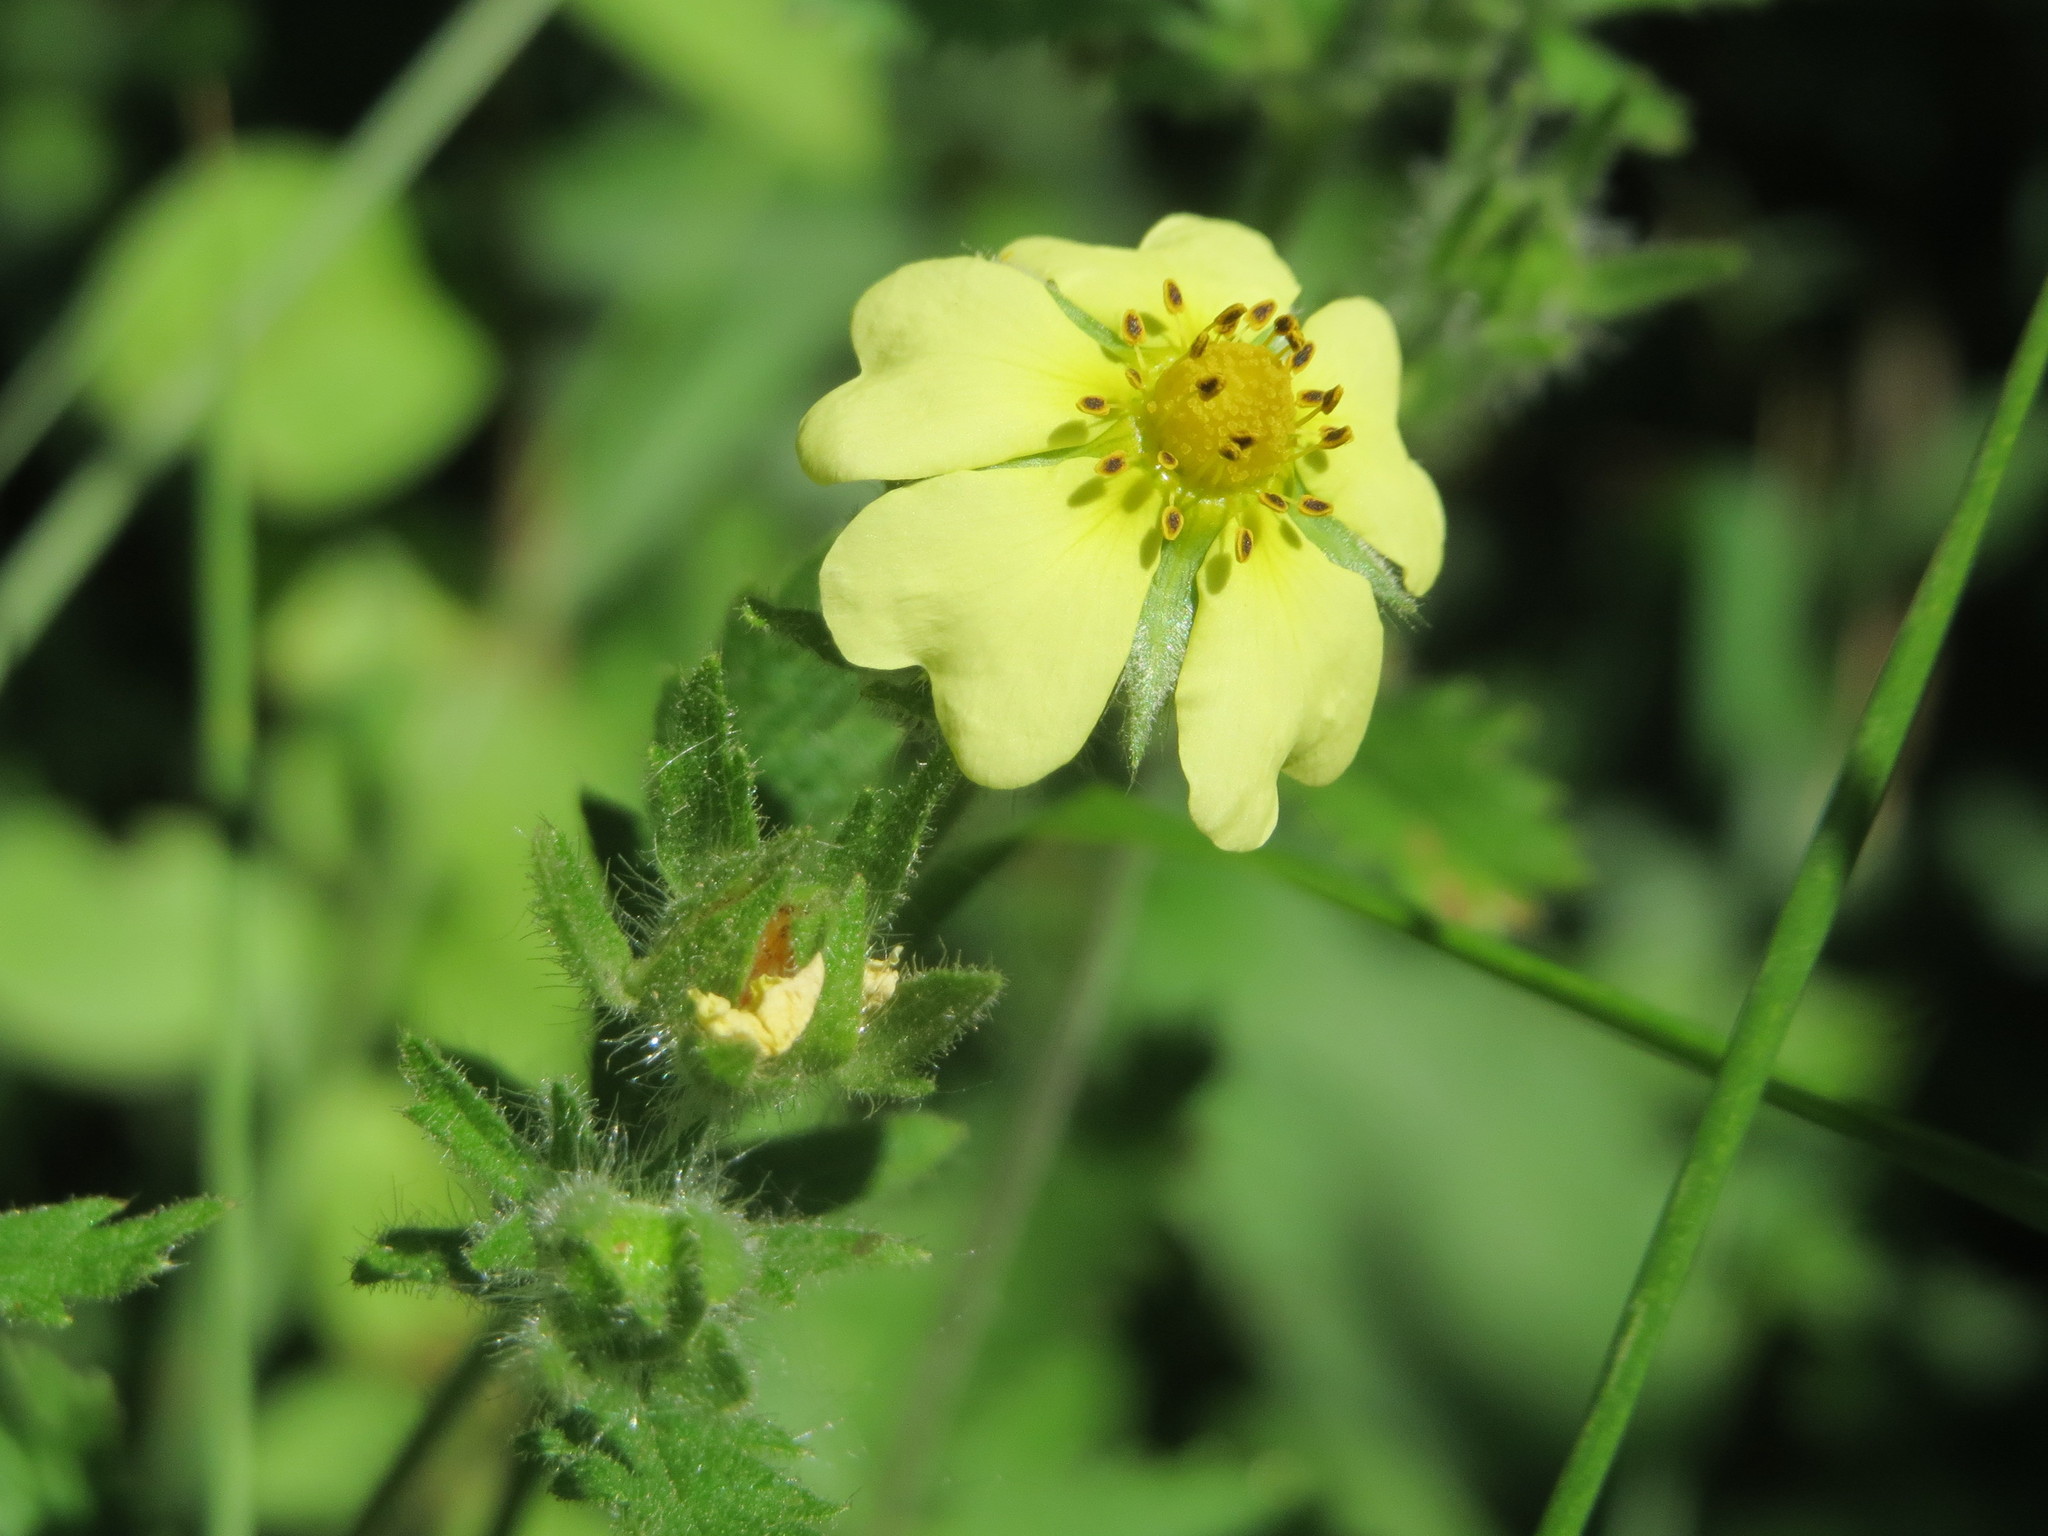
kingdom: Plantae
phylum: Tracheophyta
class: Magnoliopsida
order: Rosales
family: Rosaceae
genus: Potentilla
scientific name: Potentilla recta
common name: Sulphur cinquefoil
